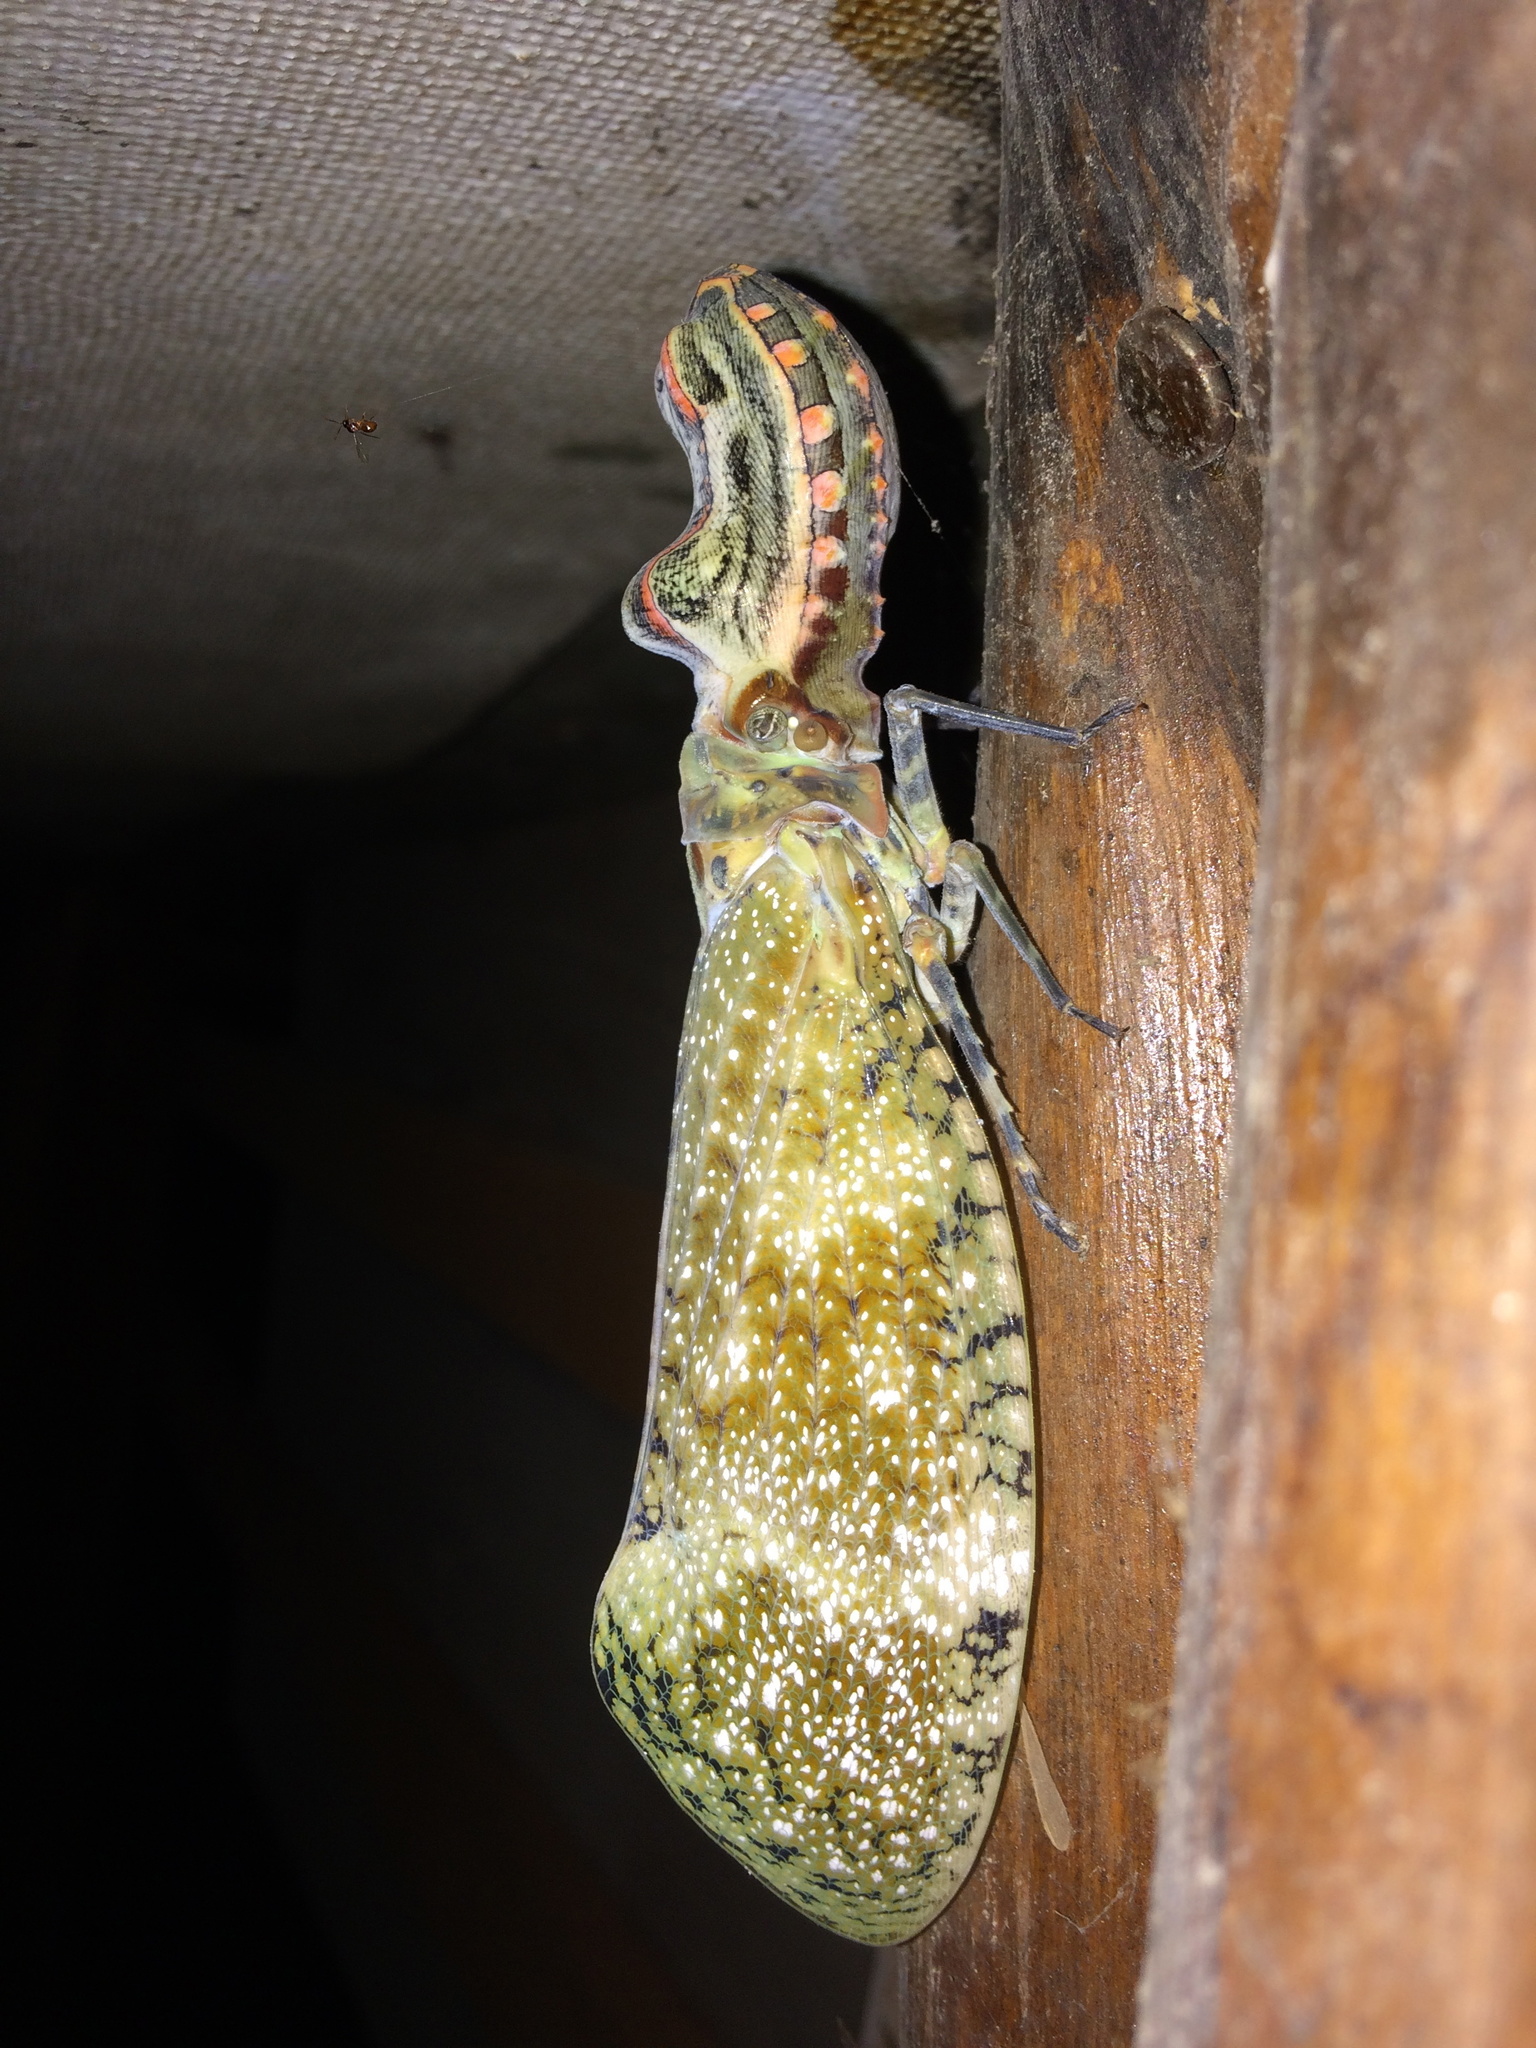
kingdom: Animalia
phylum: Arthropoda
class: Insecta
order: Hemiptera
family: Fulgoridae
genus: Fulgora
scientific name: Fulgora laternaria
